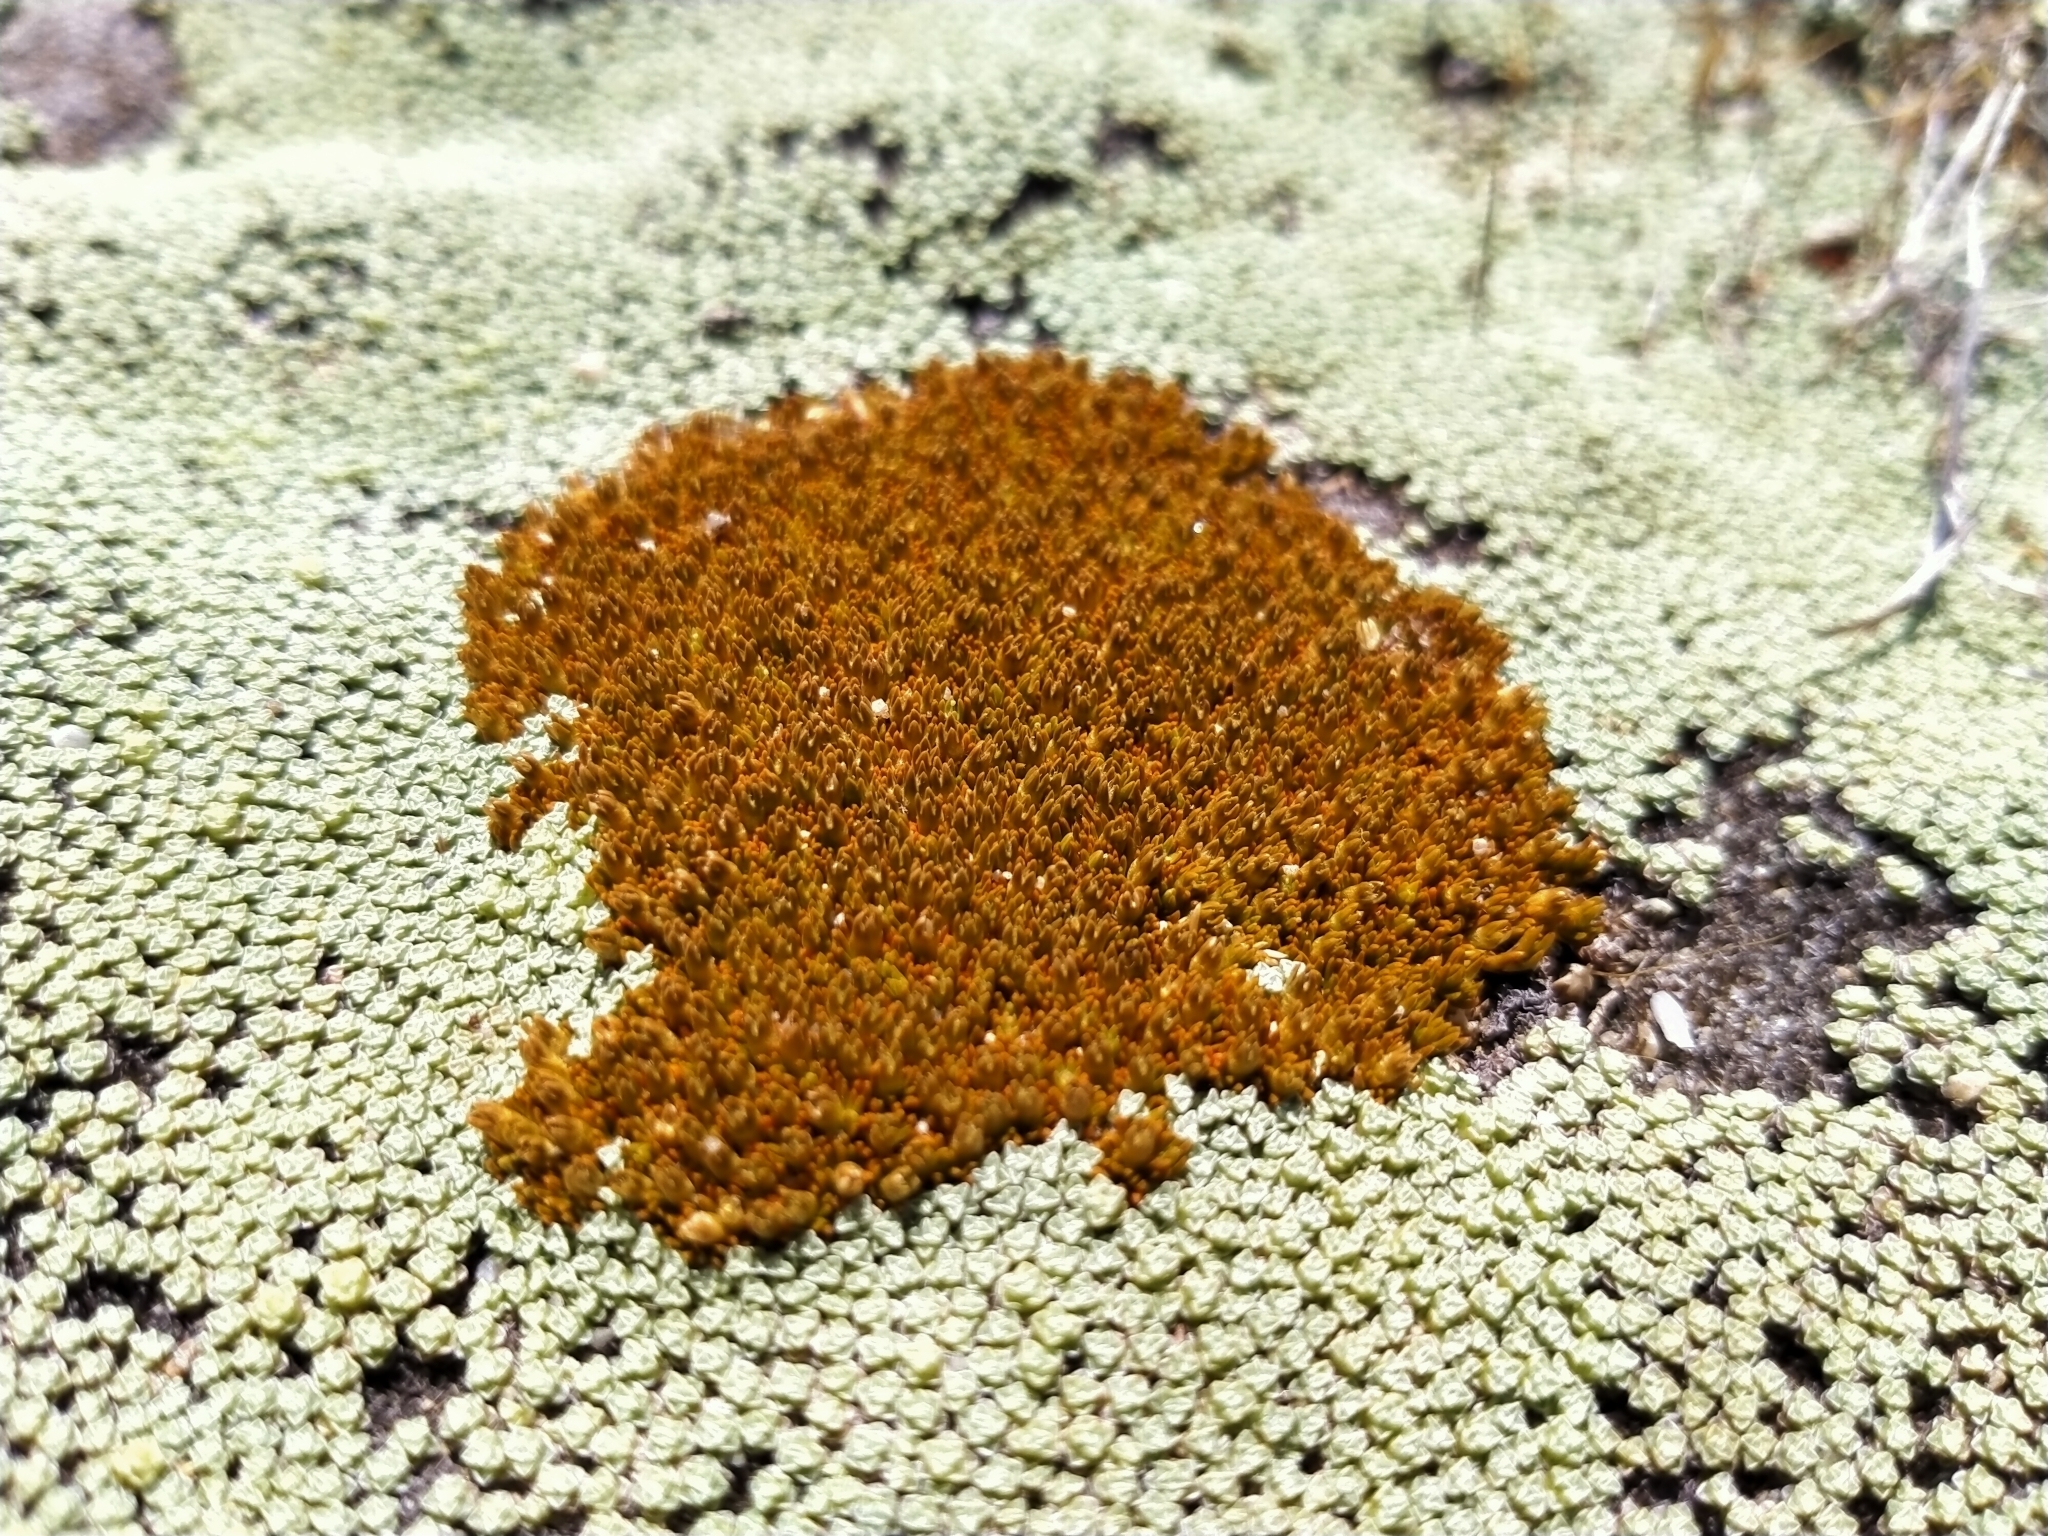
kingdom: Plantae
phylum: Tracheophyta
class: Magnoliopsida
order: Caryophyllales
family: Caryophyllaceae
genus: Scleranthus
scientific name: Scleranthus uniflorus
